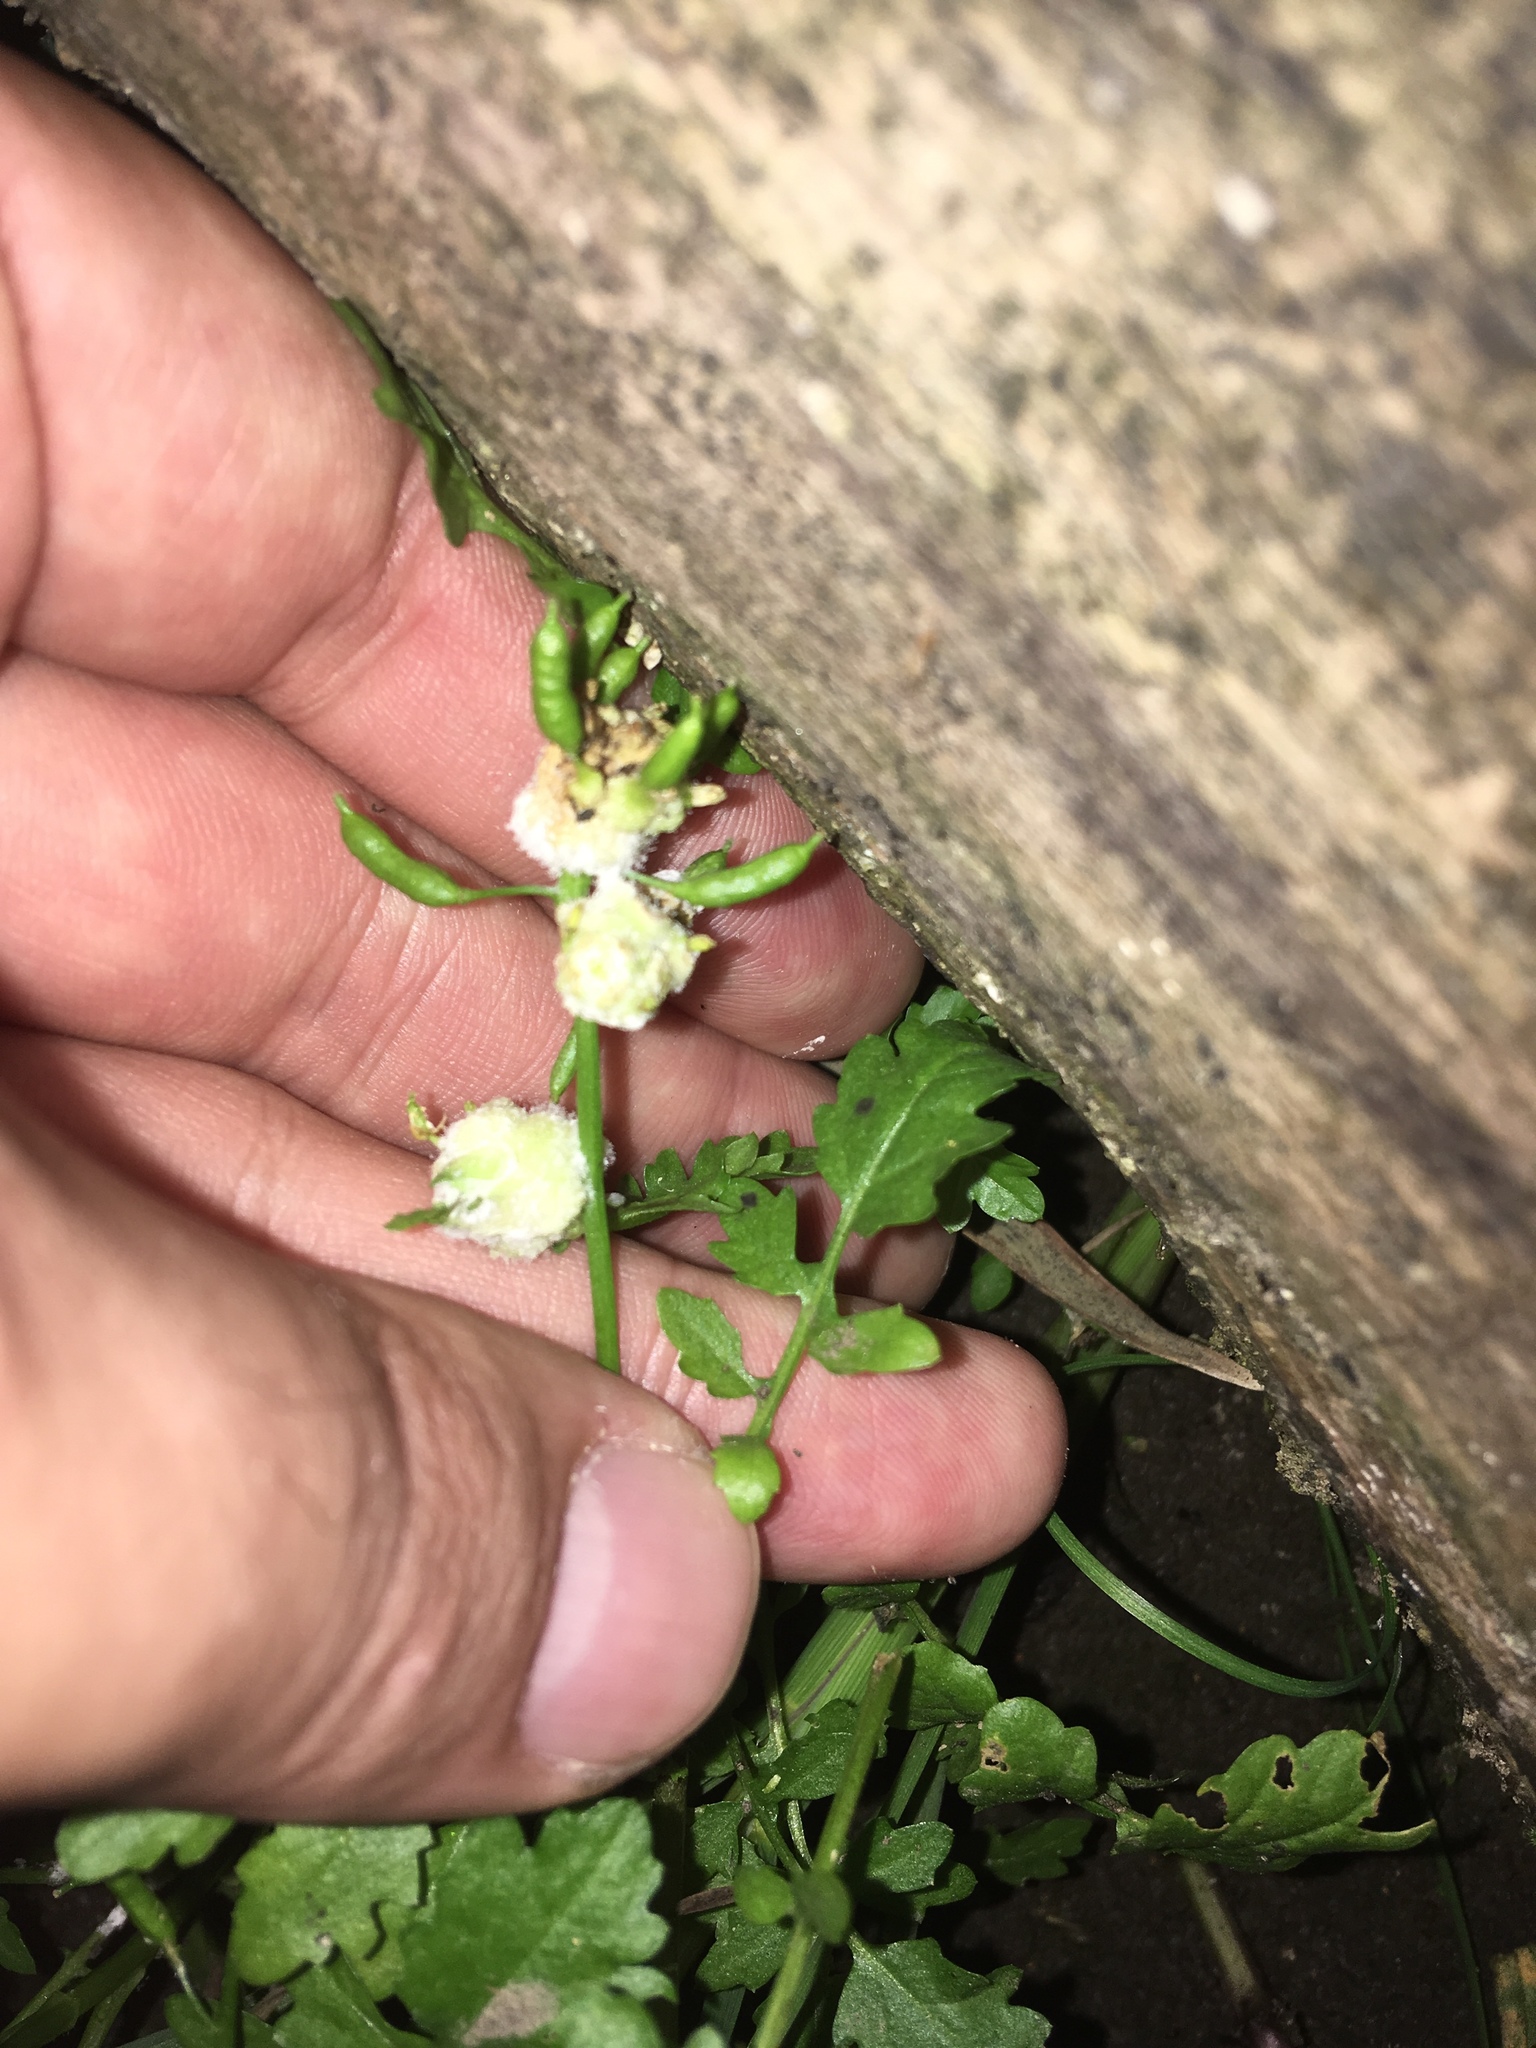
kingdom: Plantae
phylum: Tracheophyta
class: Magnoliopsida
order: Brassicales
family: Brassicaceae
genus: Rorippa
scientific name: Rorippa palustris
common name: Marsh yellow-cress
